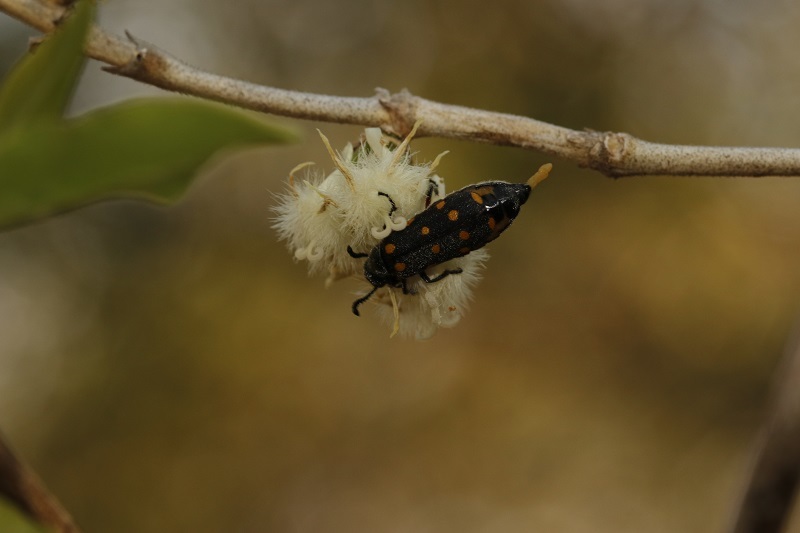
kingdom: Animalia
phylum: Arthropoda
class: Insecta
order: Coleoptera
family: Meloidae
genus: Ceroctis
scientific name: Ceroctis
